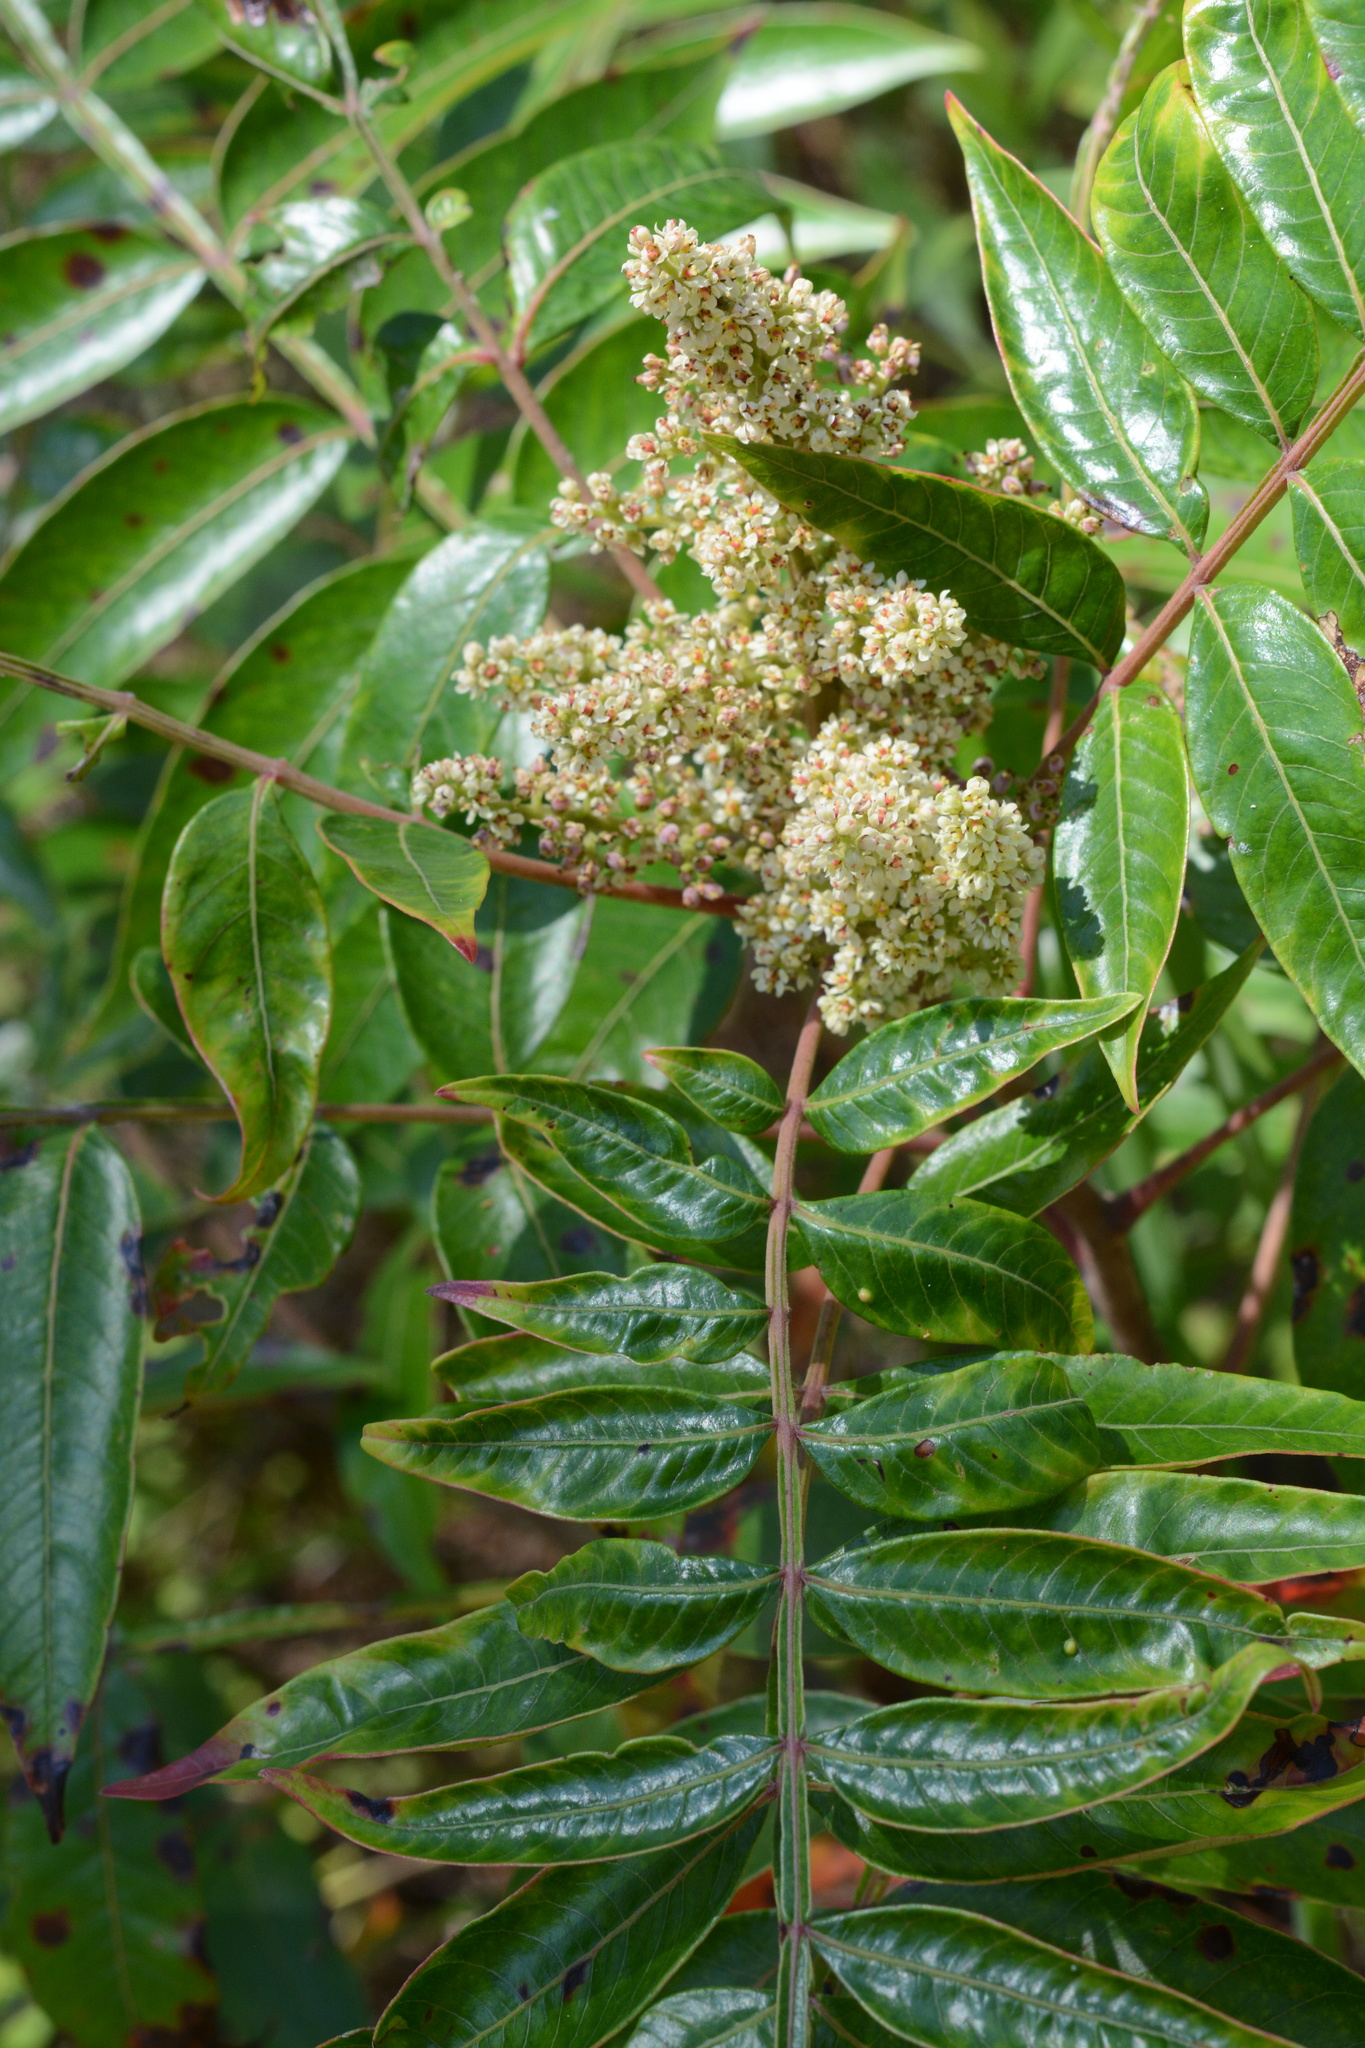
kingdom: Plantae
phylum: Tracheophyta
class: Magnoliopsida
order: Sapindales
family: Anacardiaceae
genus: Rhus
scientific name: Rhus copallina
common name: Shining sumac
